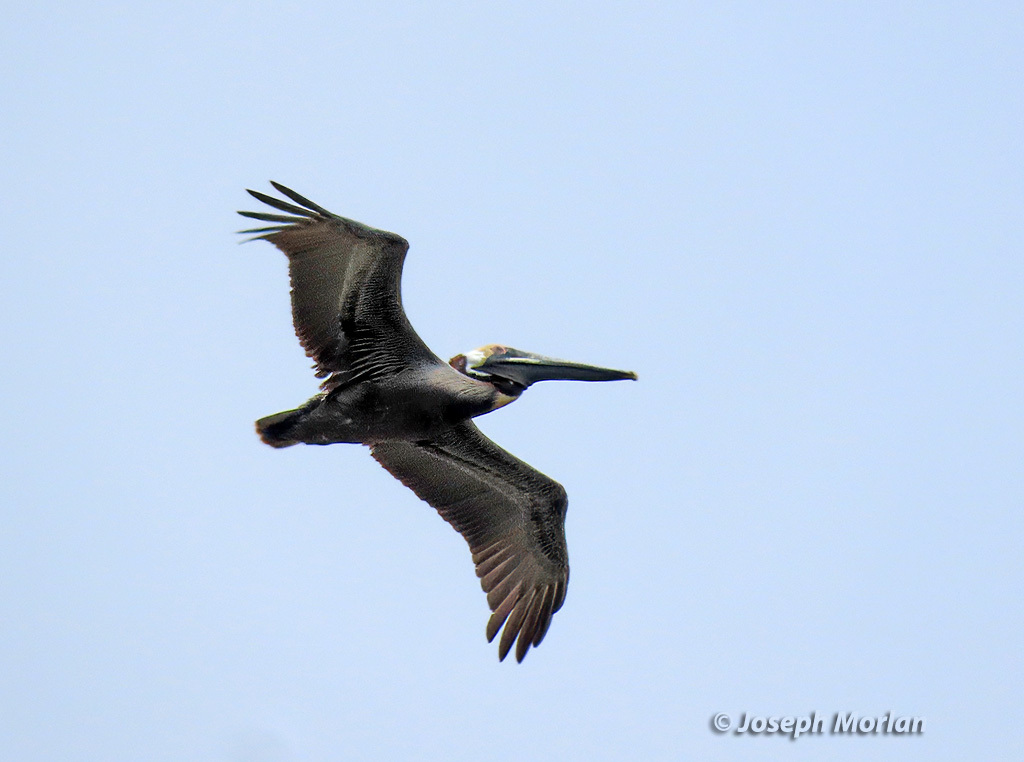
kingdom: Animalia
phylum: Chordata
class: Aves
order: Pelecaniformes
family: Pelecanidae
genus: Pelecanus
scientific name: Pelecanus occidentalis
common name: Brown pelican
